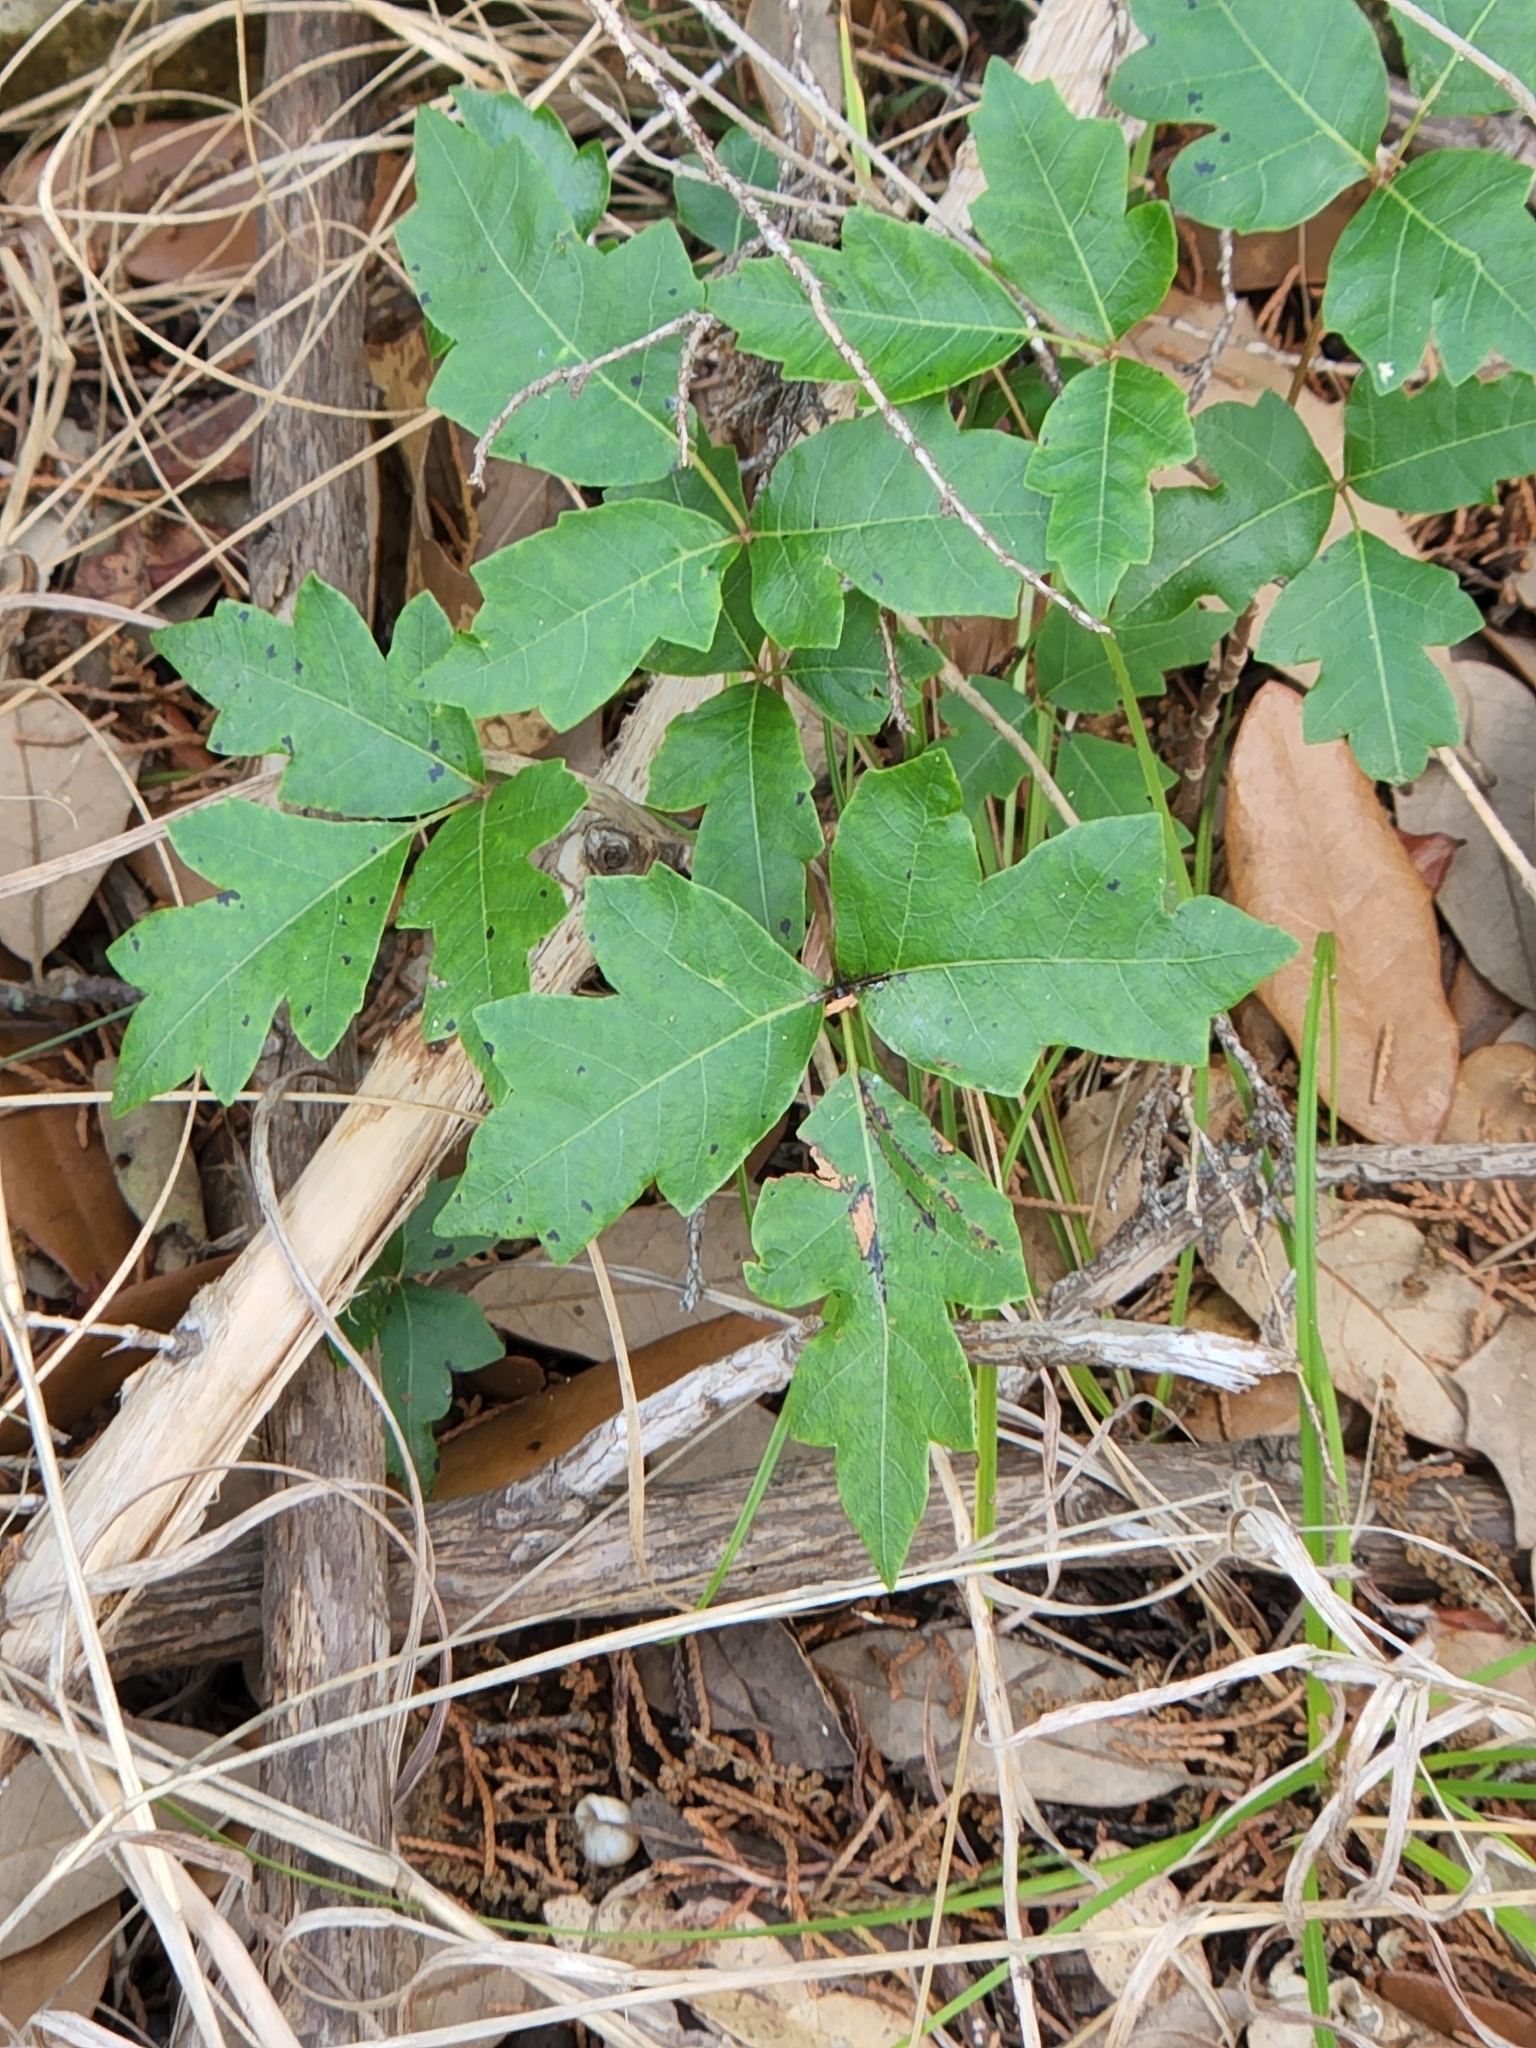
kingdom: Plantae
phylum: Tracheophyta
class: Magnoliopsida
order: Sapindales
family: Anacardiaceae
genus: Toxicodendron
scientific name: Toxicodendron pubescens
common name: Eastern poison-oak
